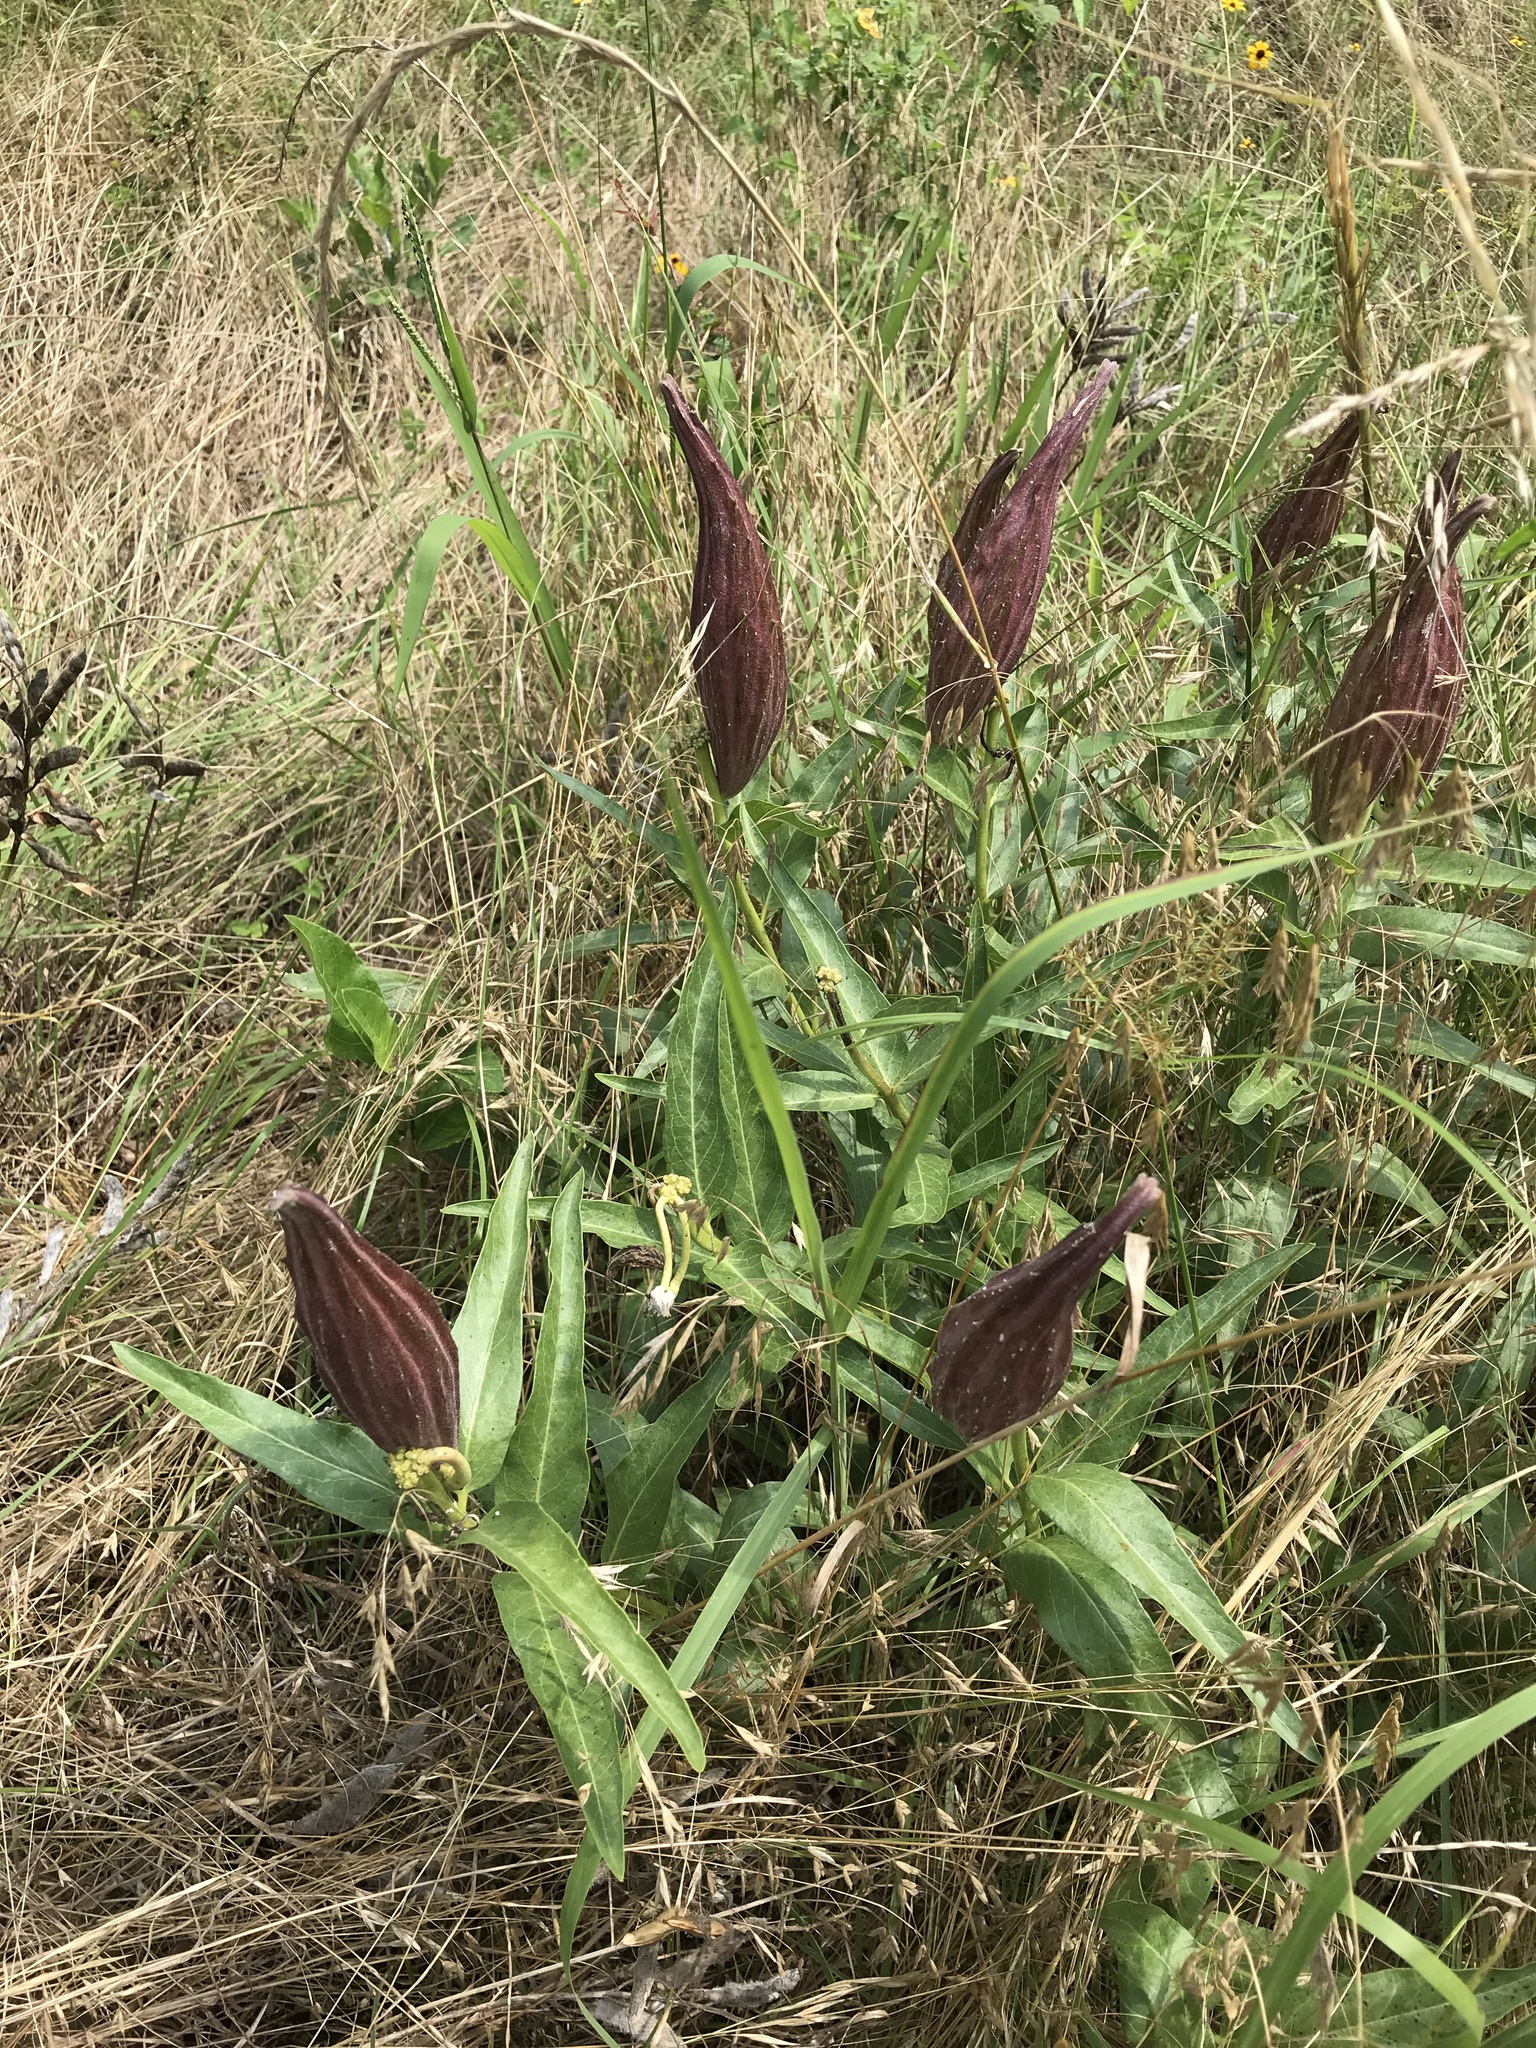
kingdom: Plantae
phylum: Tracheophyta
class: Magnoliopsida
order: Gentianales
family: Apocynaceae
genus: Asclepias
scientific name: Asclepias asperula
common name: Antelope horns
